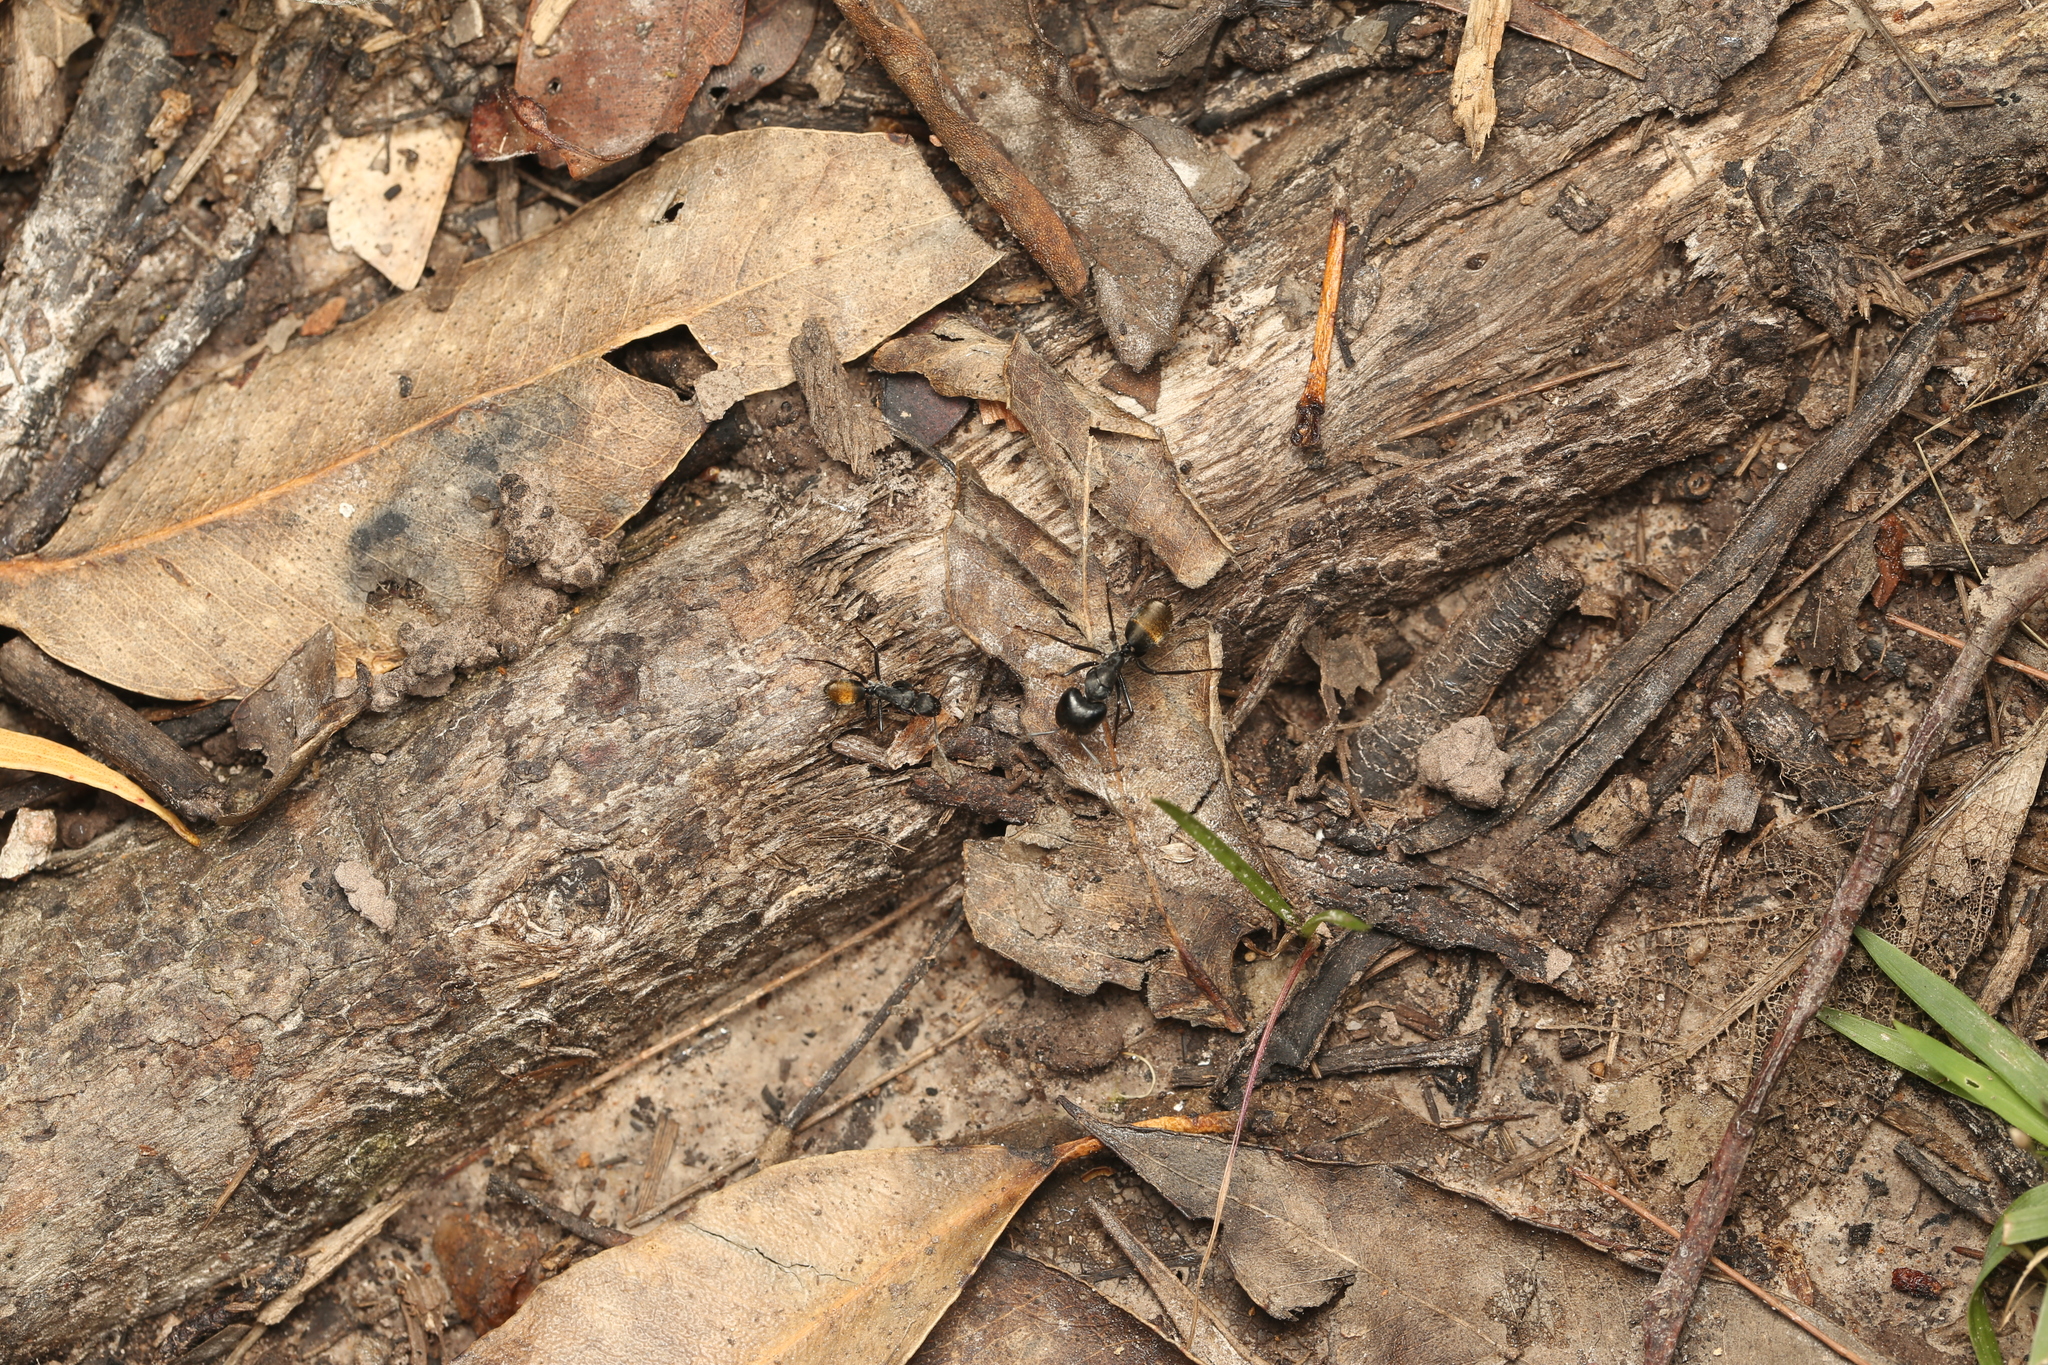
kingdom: Animalia
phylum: Arthropoda
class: Insecta
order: Hymenoptera
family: Formicidae
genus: Camponotus
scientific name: Camponotus aeneopilosus
